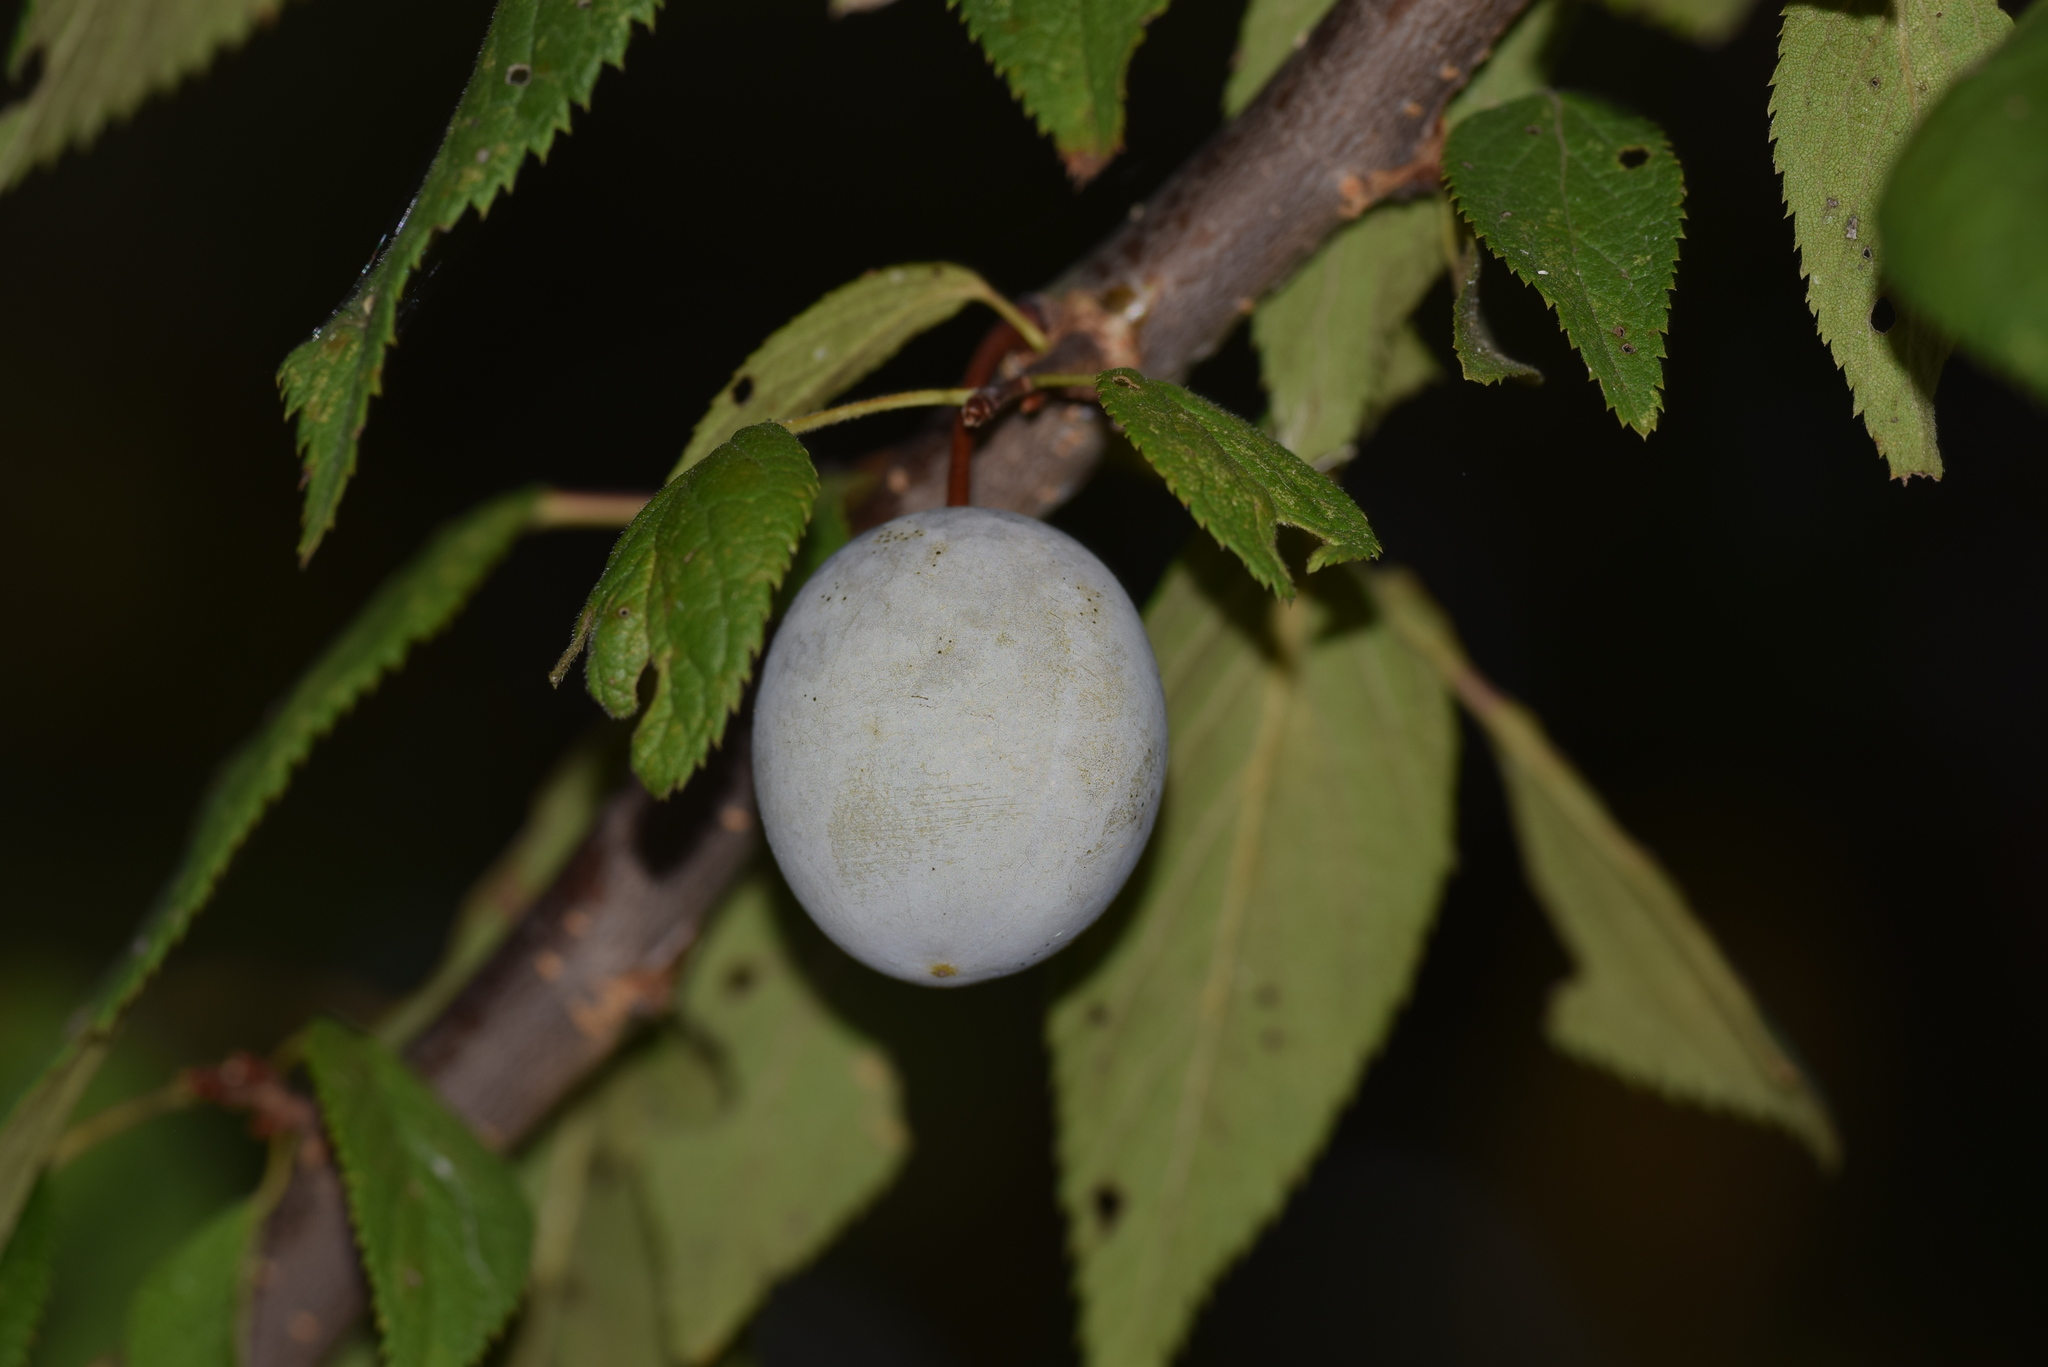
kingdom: Plantae
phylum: Tracheophyta
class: Magnoliopsida
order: Rosales
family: Rosaceae
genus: Prunus
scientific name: Prunus mexicana
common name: Mexican plum
